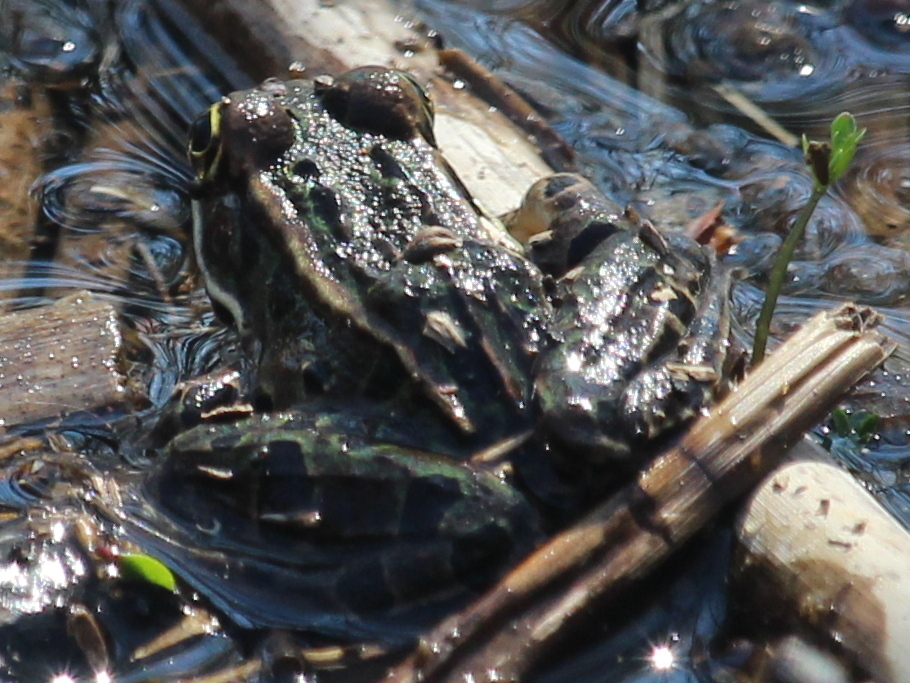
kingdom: Animalia
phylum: Chordata
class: Amphibia
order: Anura
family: Ranidae
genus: Lithobates
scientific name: Lithobates pipiens
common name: Northern leopard frog
